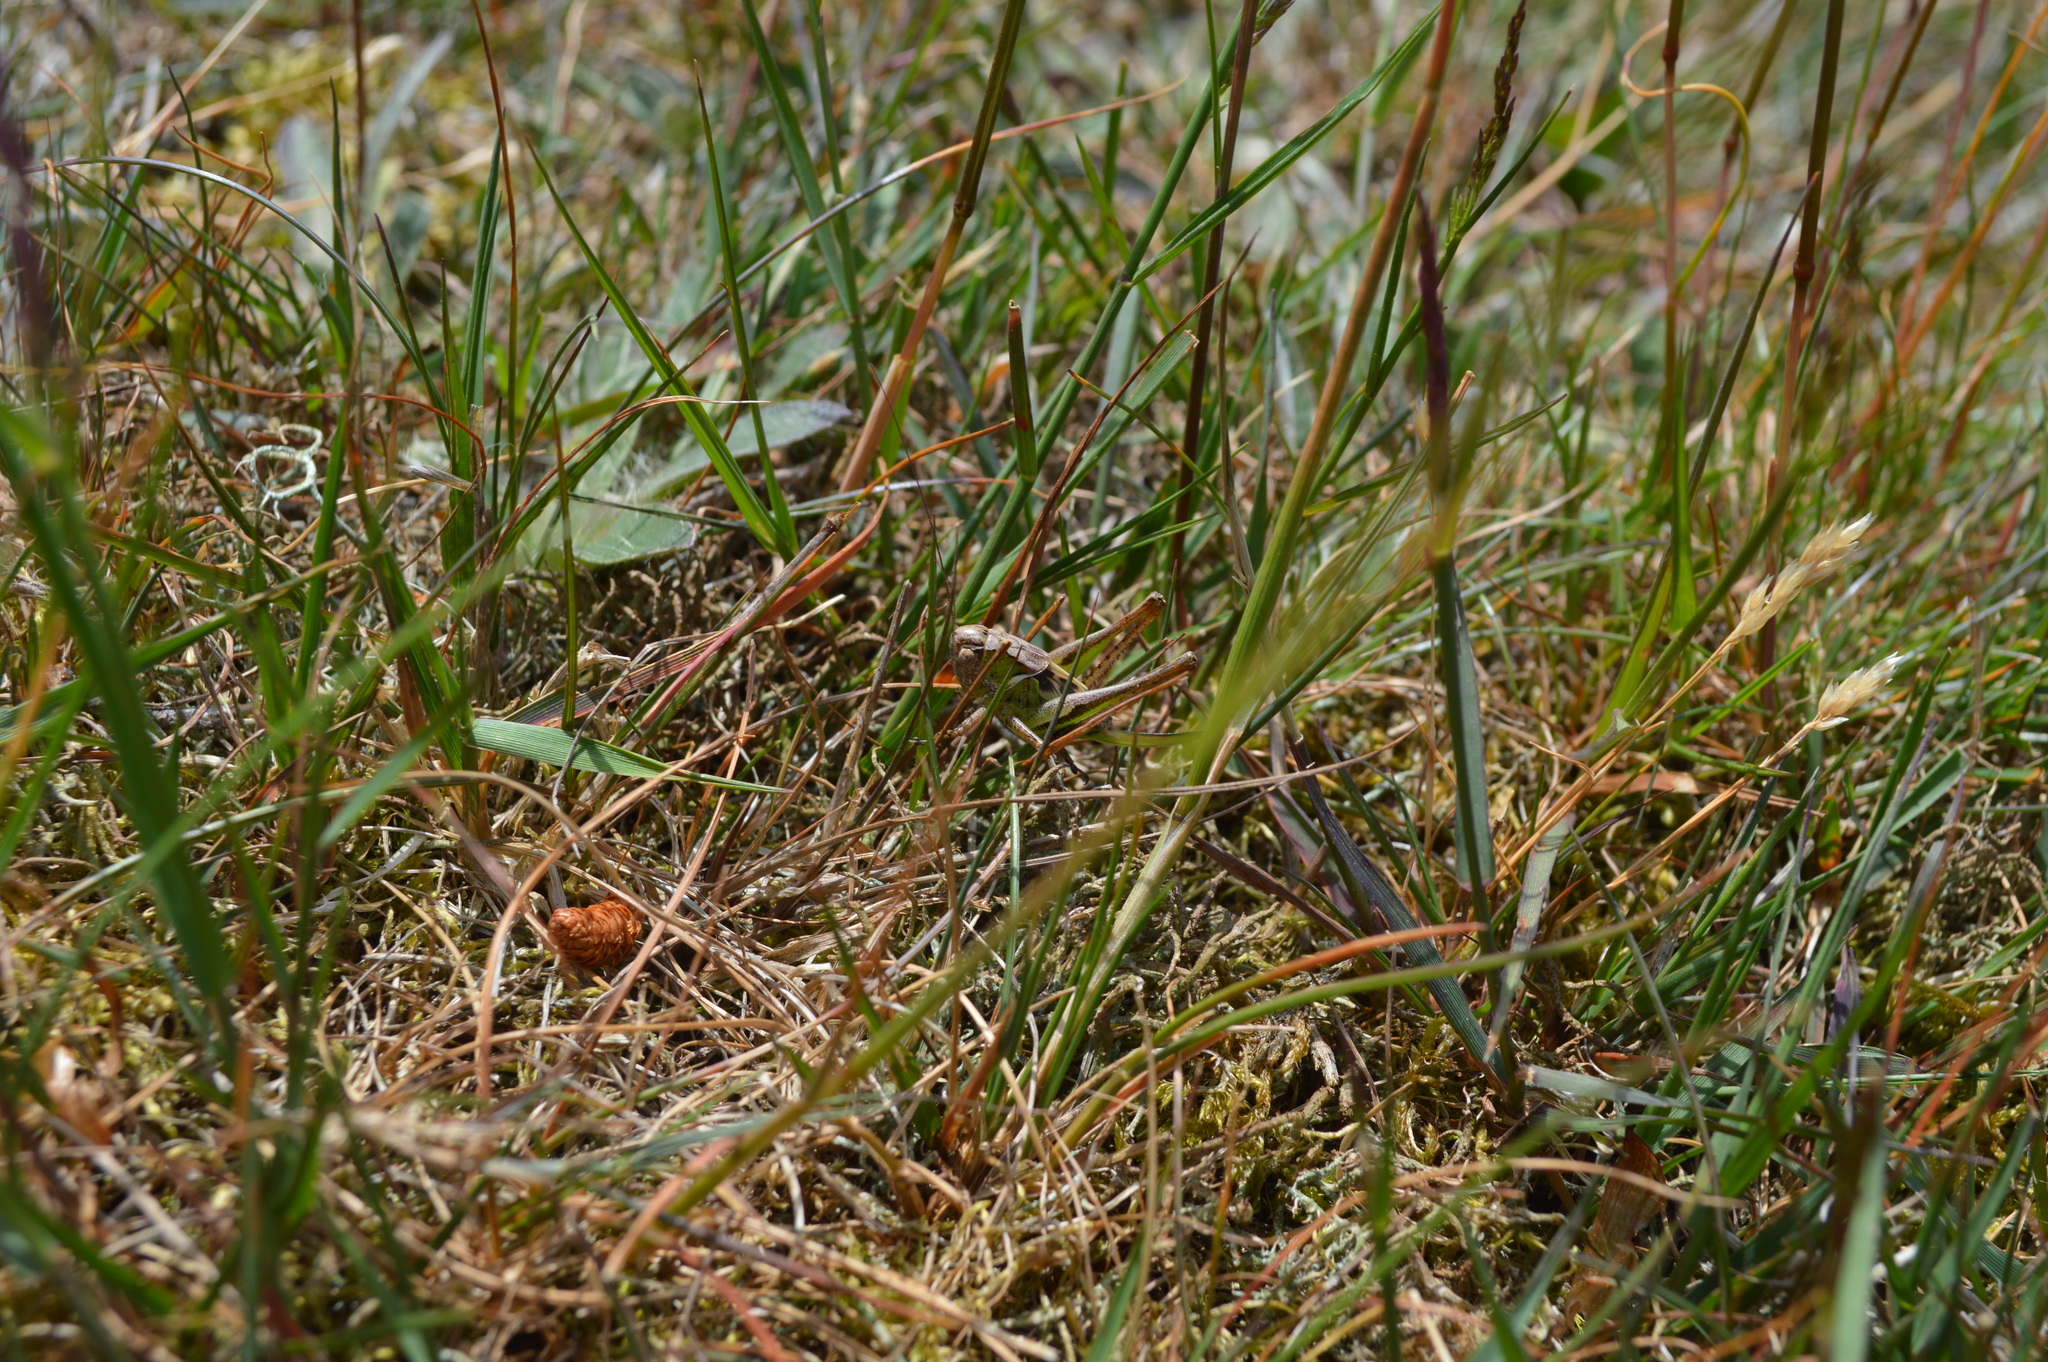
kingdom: Animalia
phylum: Arthropoda
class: Insecta
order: Orthoptera
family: Tettigoniidae
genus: Platycleis
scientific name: Platycleis albopunctata
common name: Grey bush-cricket
